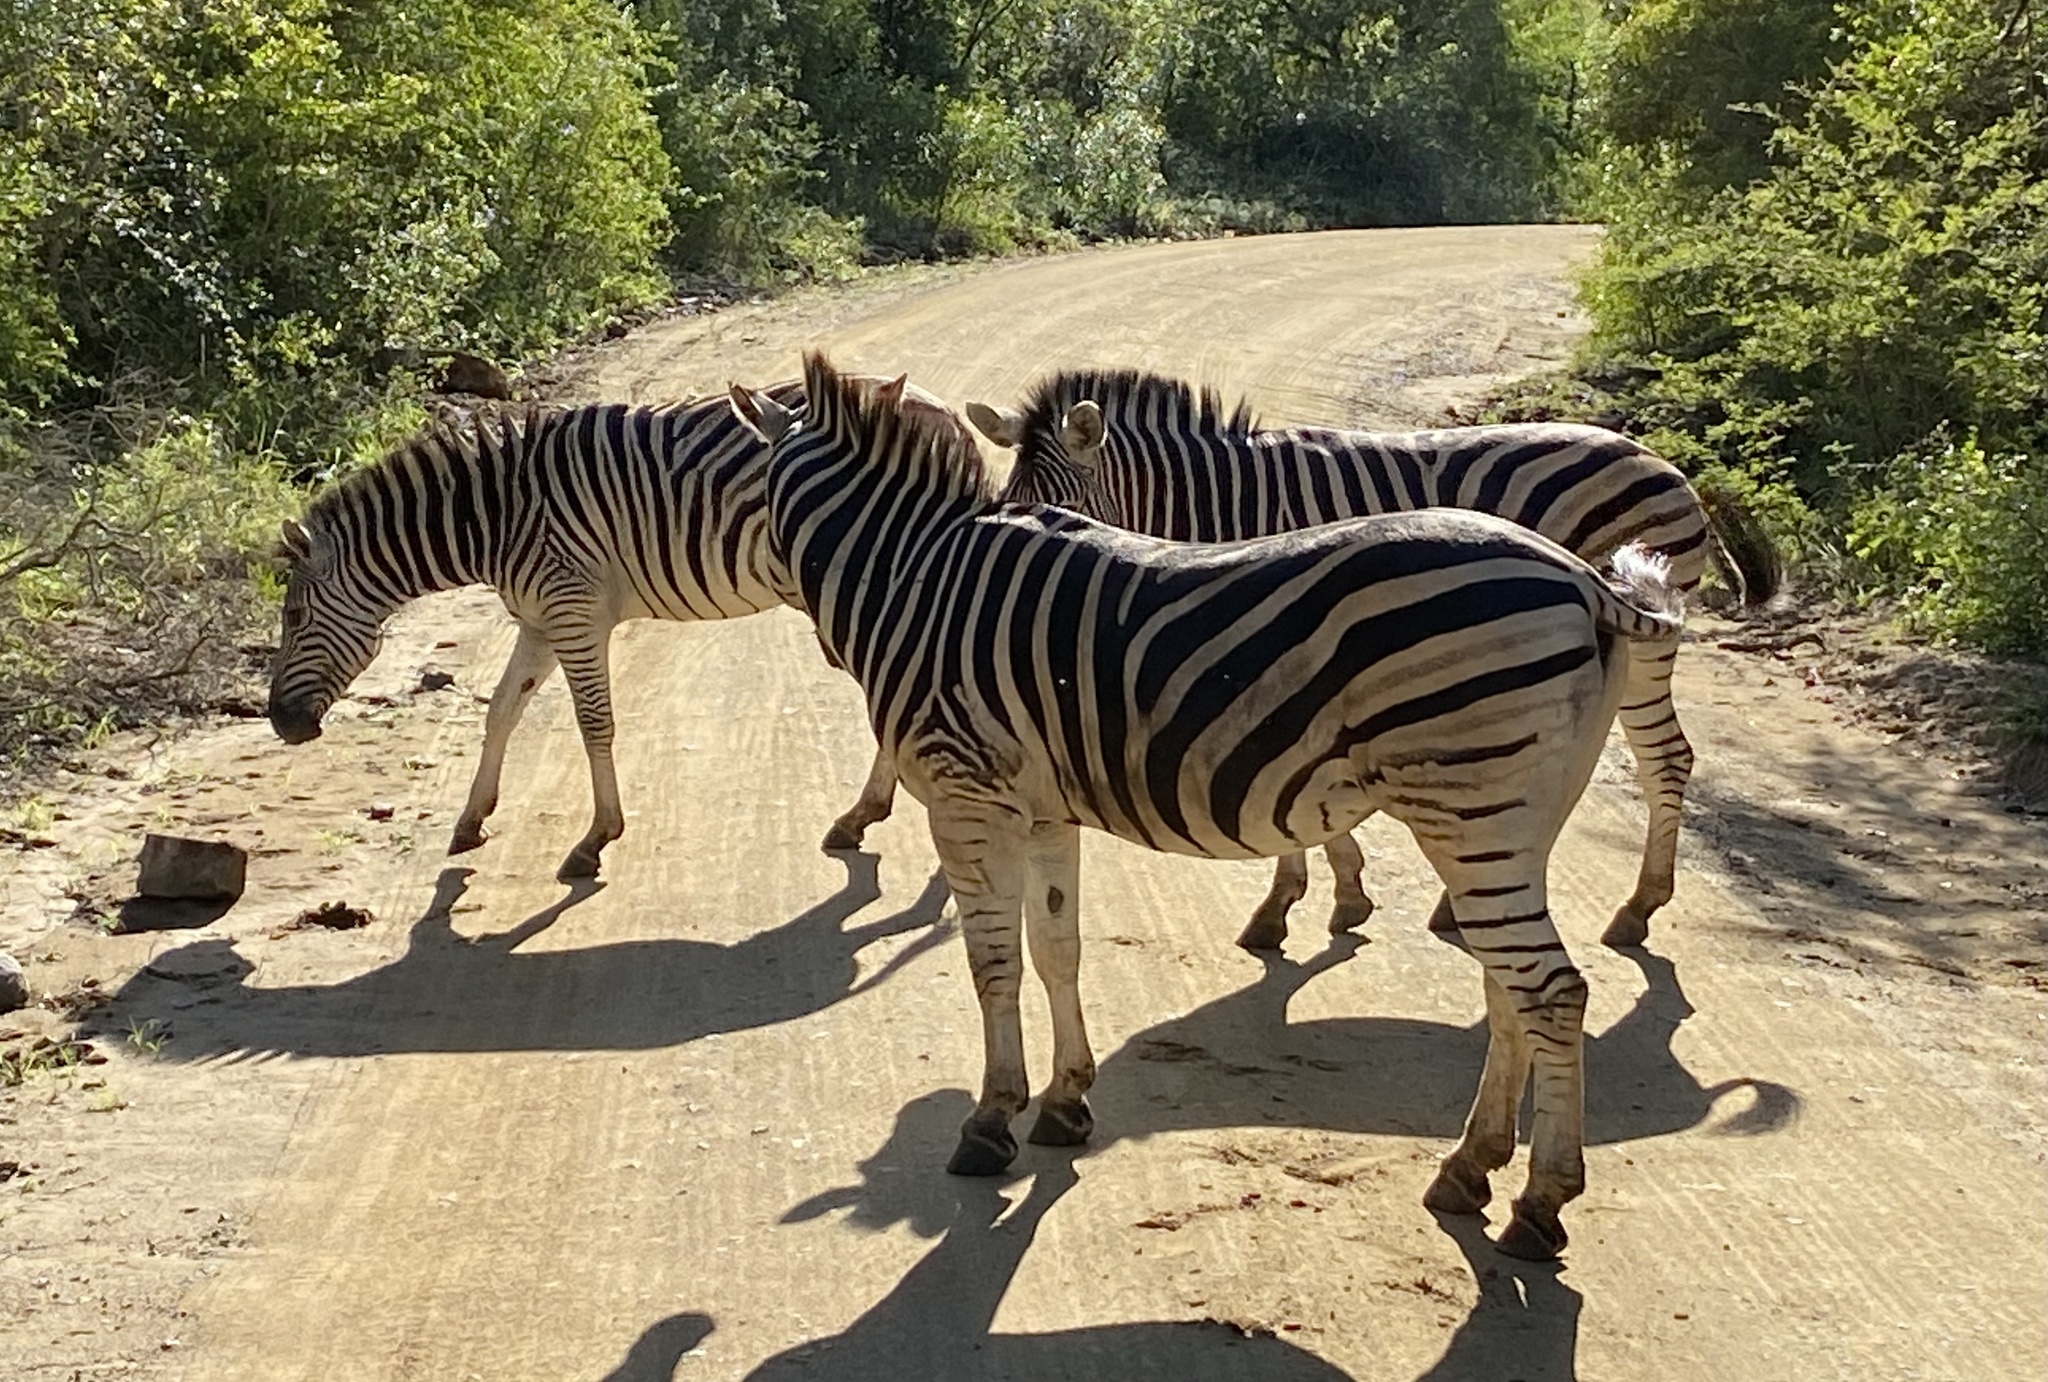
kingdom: Animalia
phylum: Chordata
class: Mammalia
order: Perissodactyla
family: Equidae
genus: Equus
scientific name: Equus quagga
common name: Plains zebra
